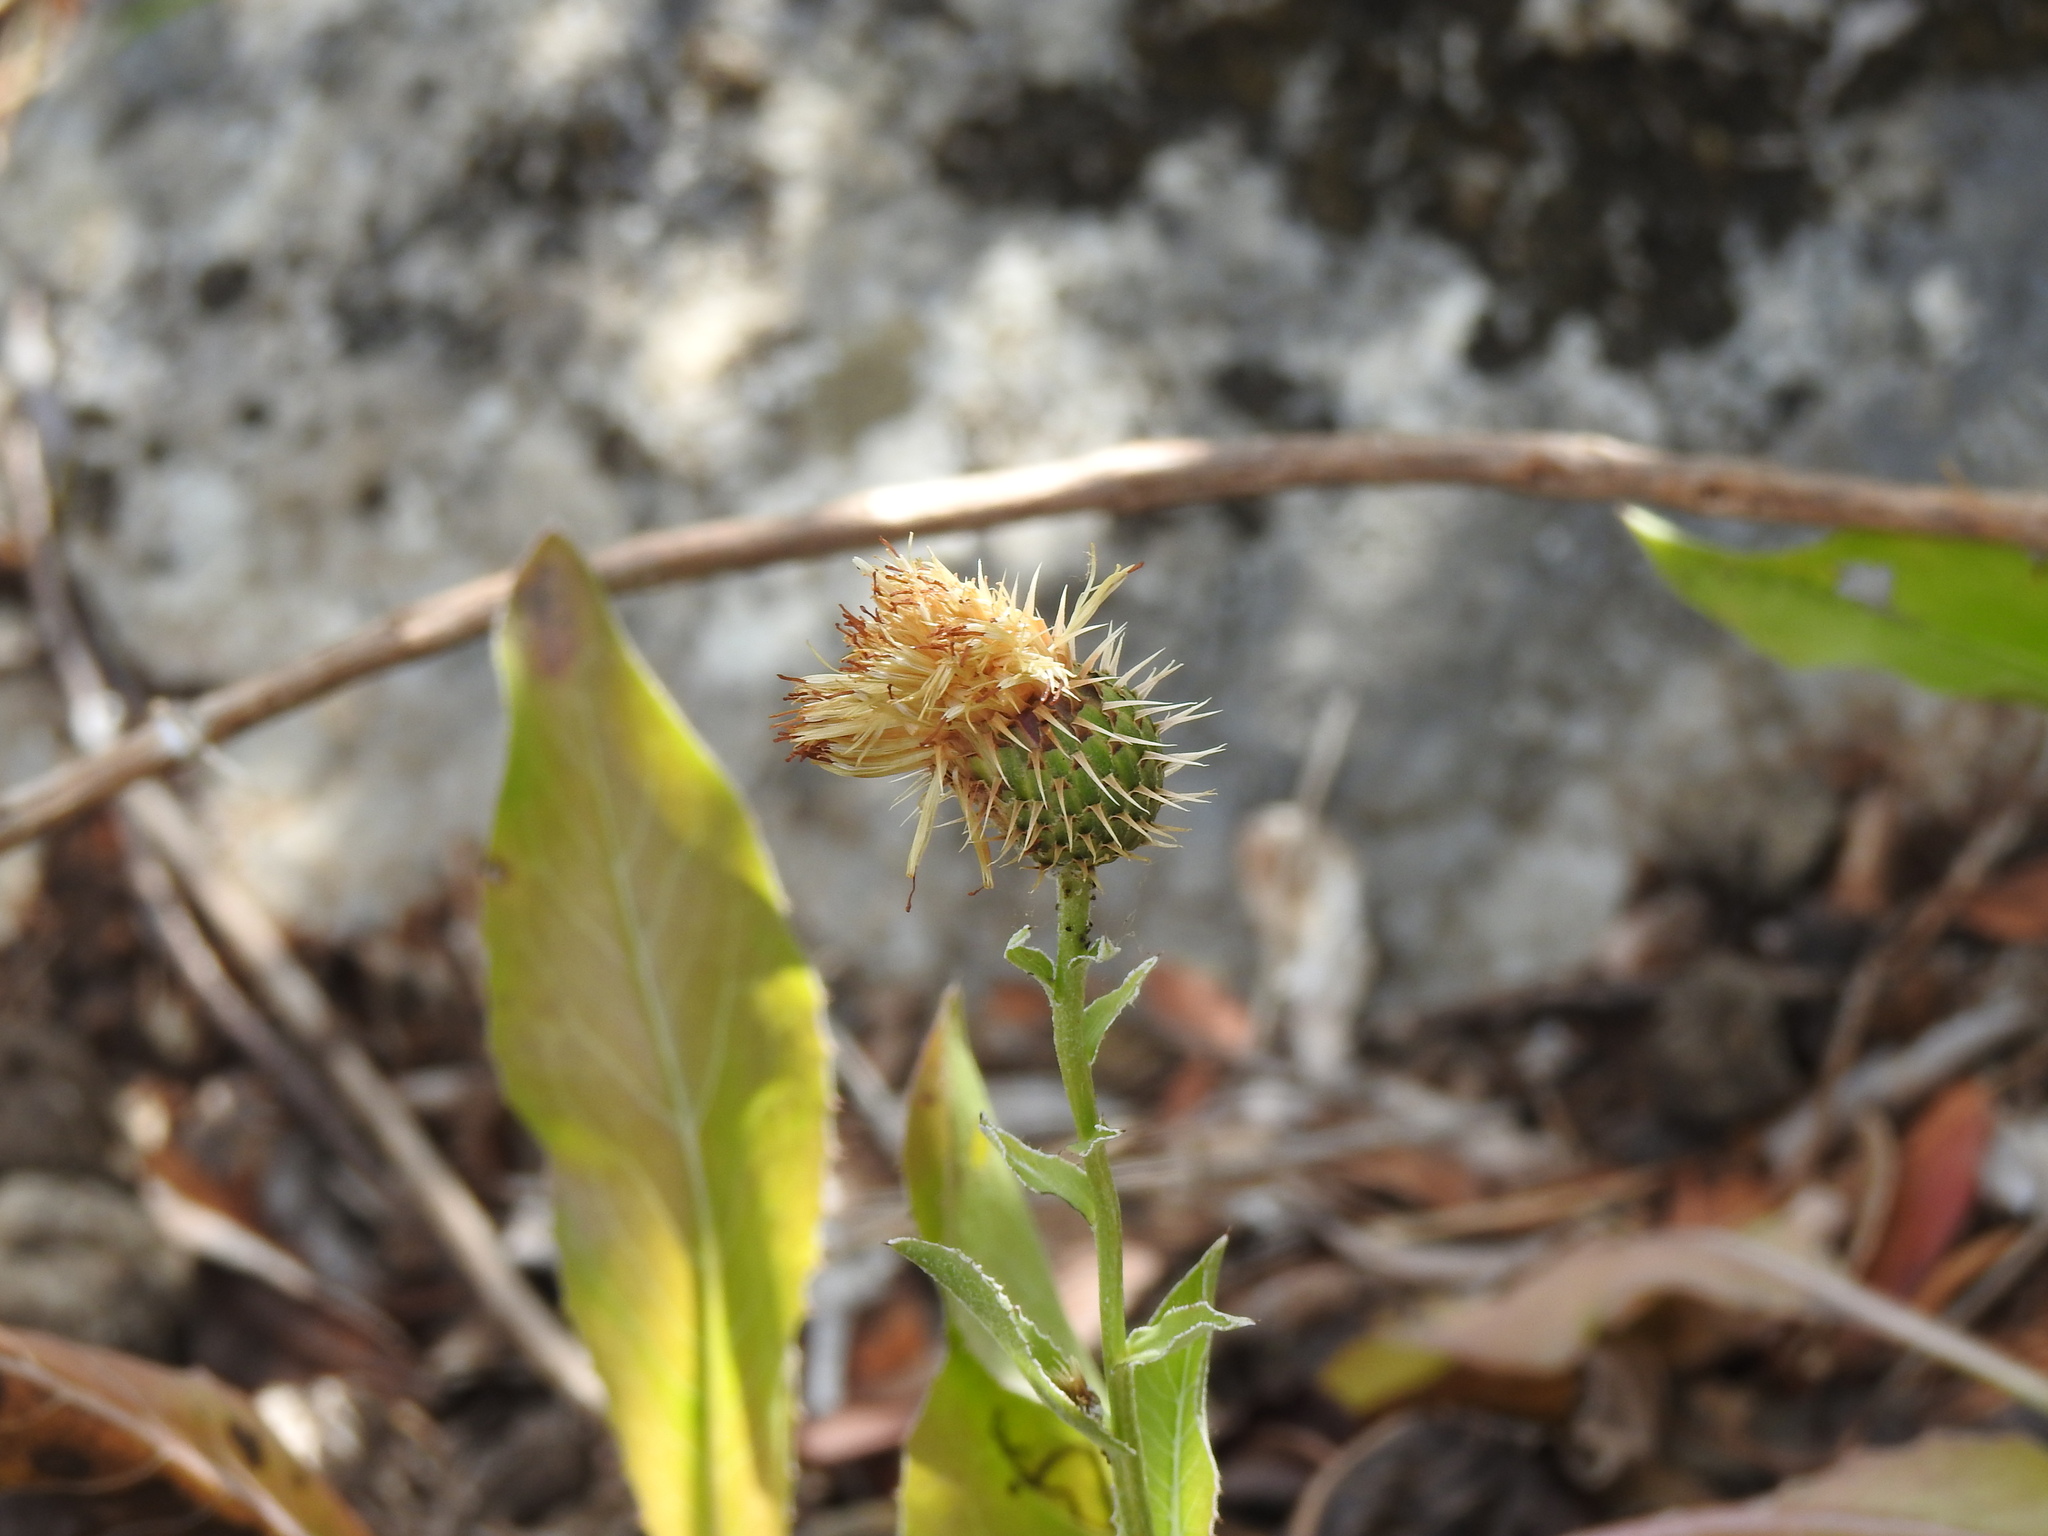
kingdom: Plantae
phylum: Tracheophyta
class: Magnoliopsida
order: Asterales
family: Asteraceae
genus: Klasea
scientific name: Klasea flavescens
